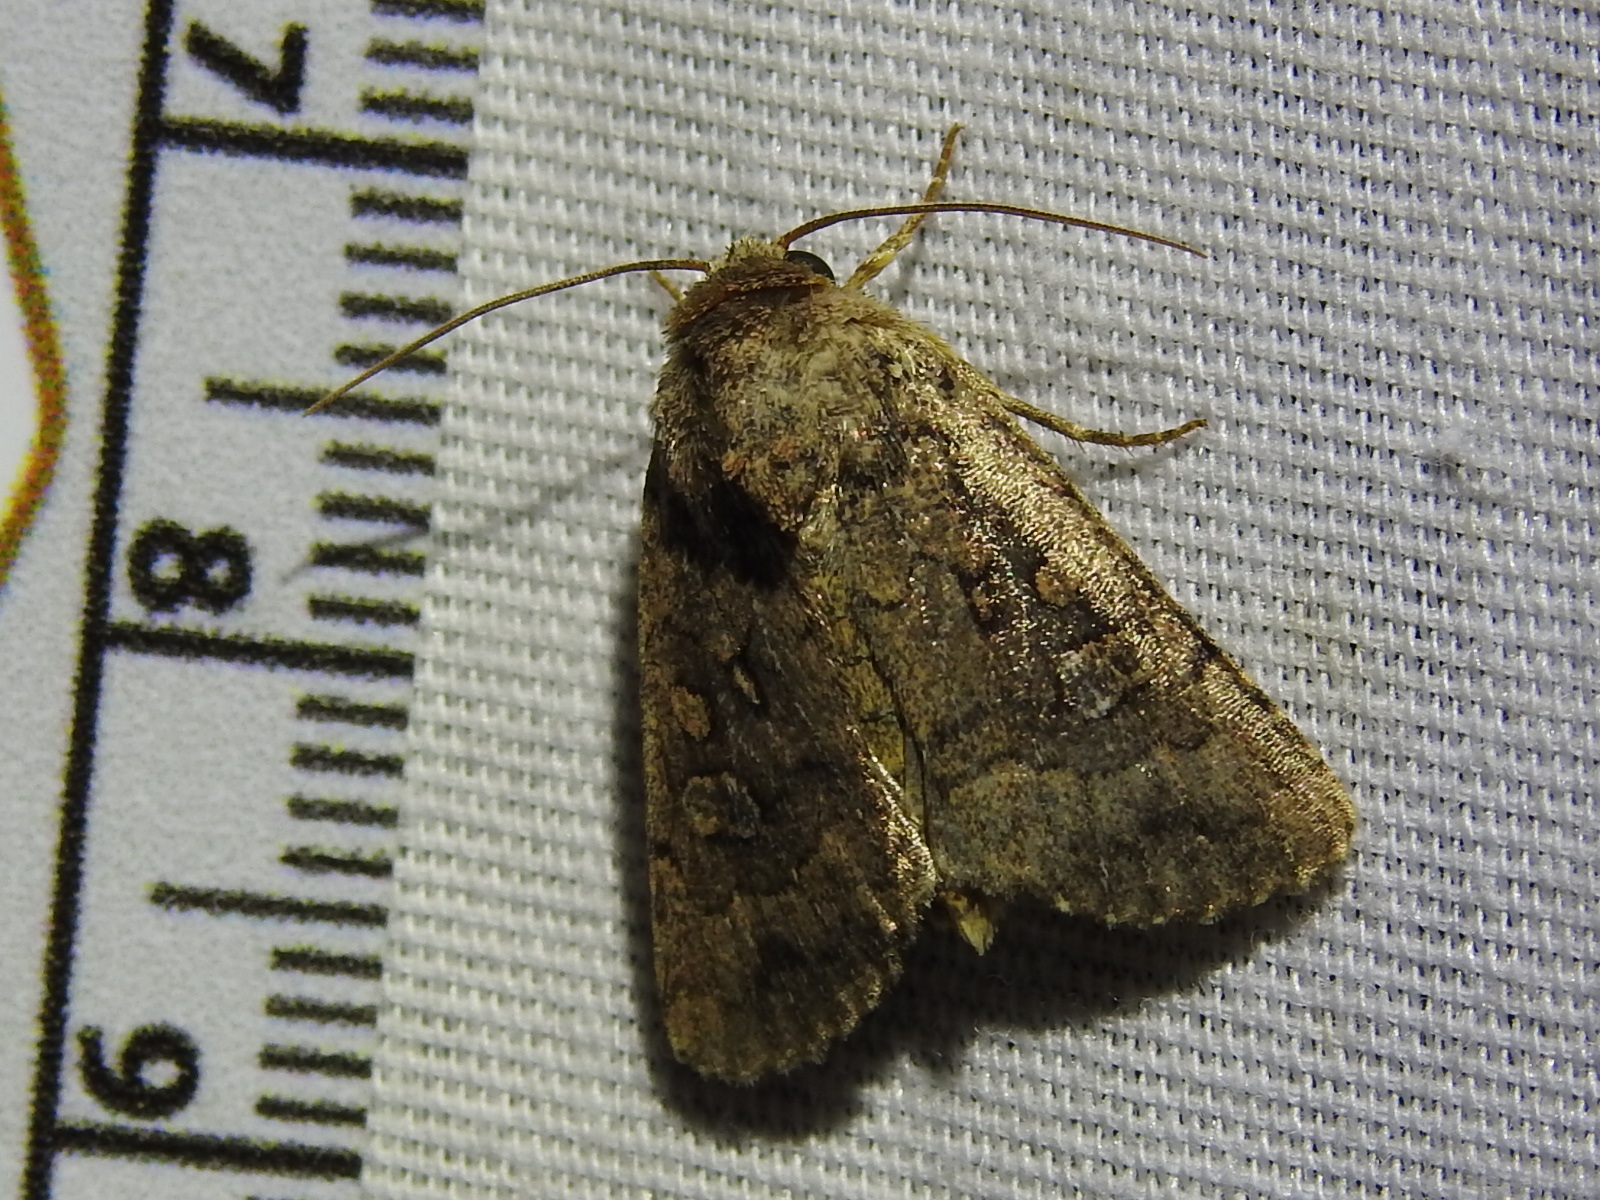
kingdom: Animalia
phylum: Arthropoda
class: Insecta
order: Lepidoptera
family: Noctuidae
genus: Protorthodes
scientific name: Protorthodes texana
